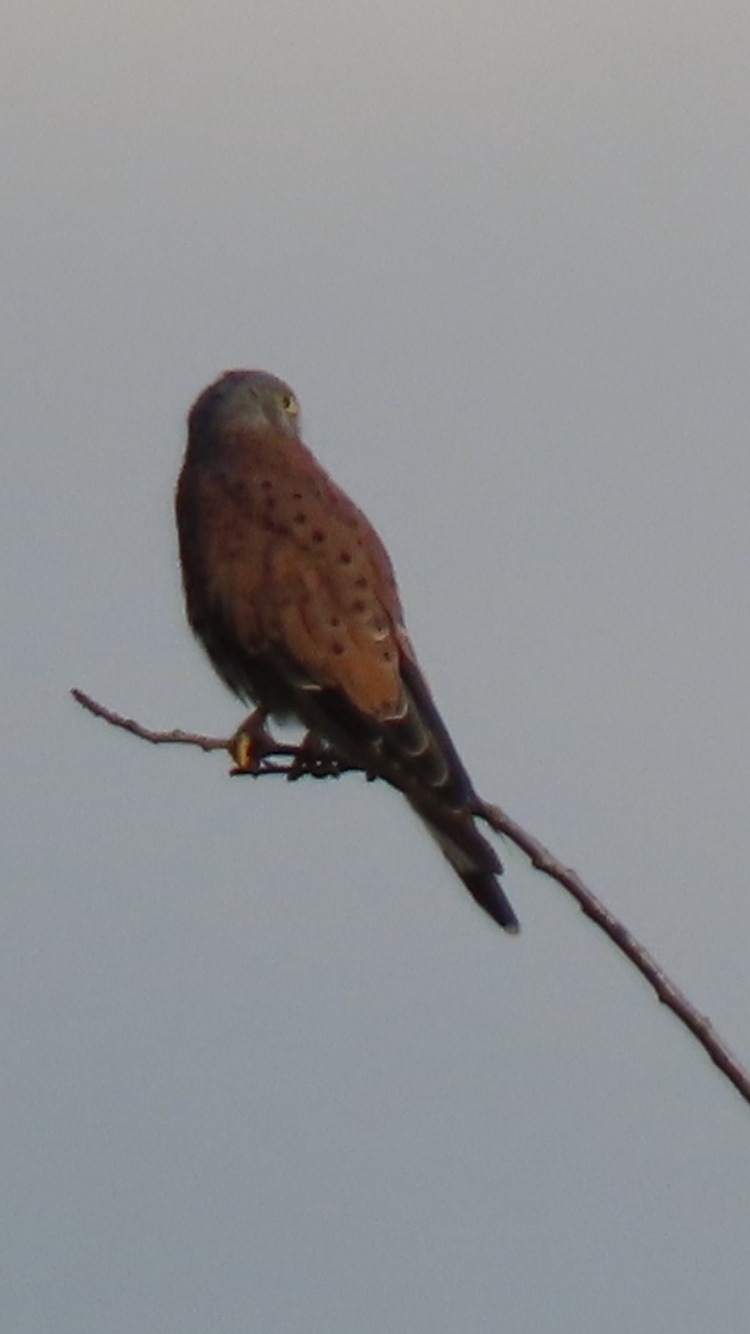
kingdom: Animalia
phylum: Chordata
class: Aves
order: Falconiformes
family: Falconidae
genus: Falco
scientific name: Falco tinnunculus
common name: Common kestrel
